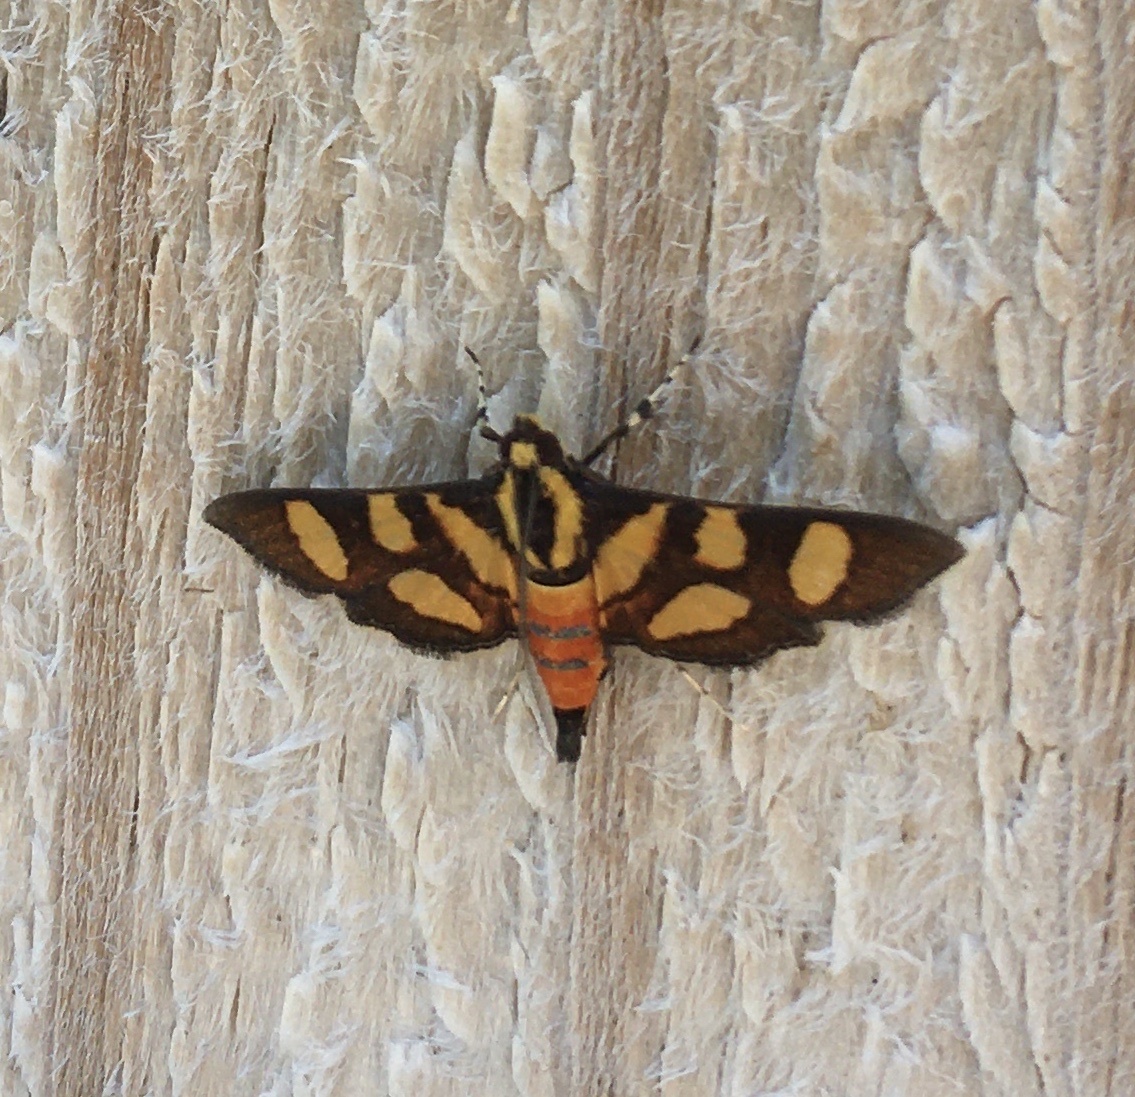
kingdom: Animalia
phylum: Arthropoda
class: Insecta
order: Lepidoptera
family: Crambidae
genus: Syngamia
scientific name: Syngamia florella
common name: Orange-spotted flower moth
